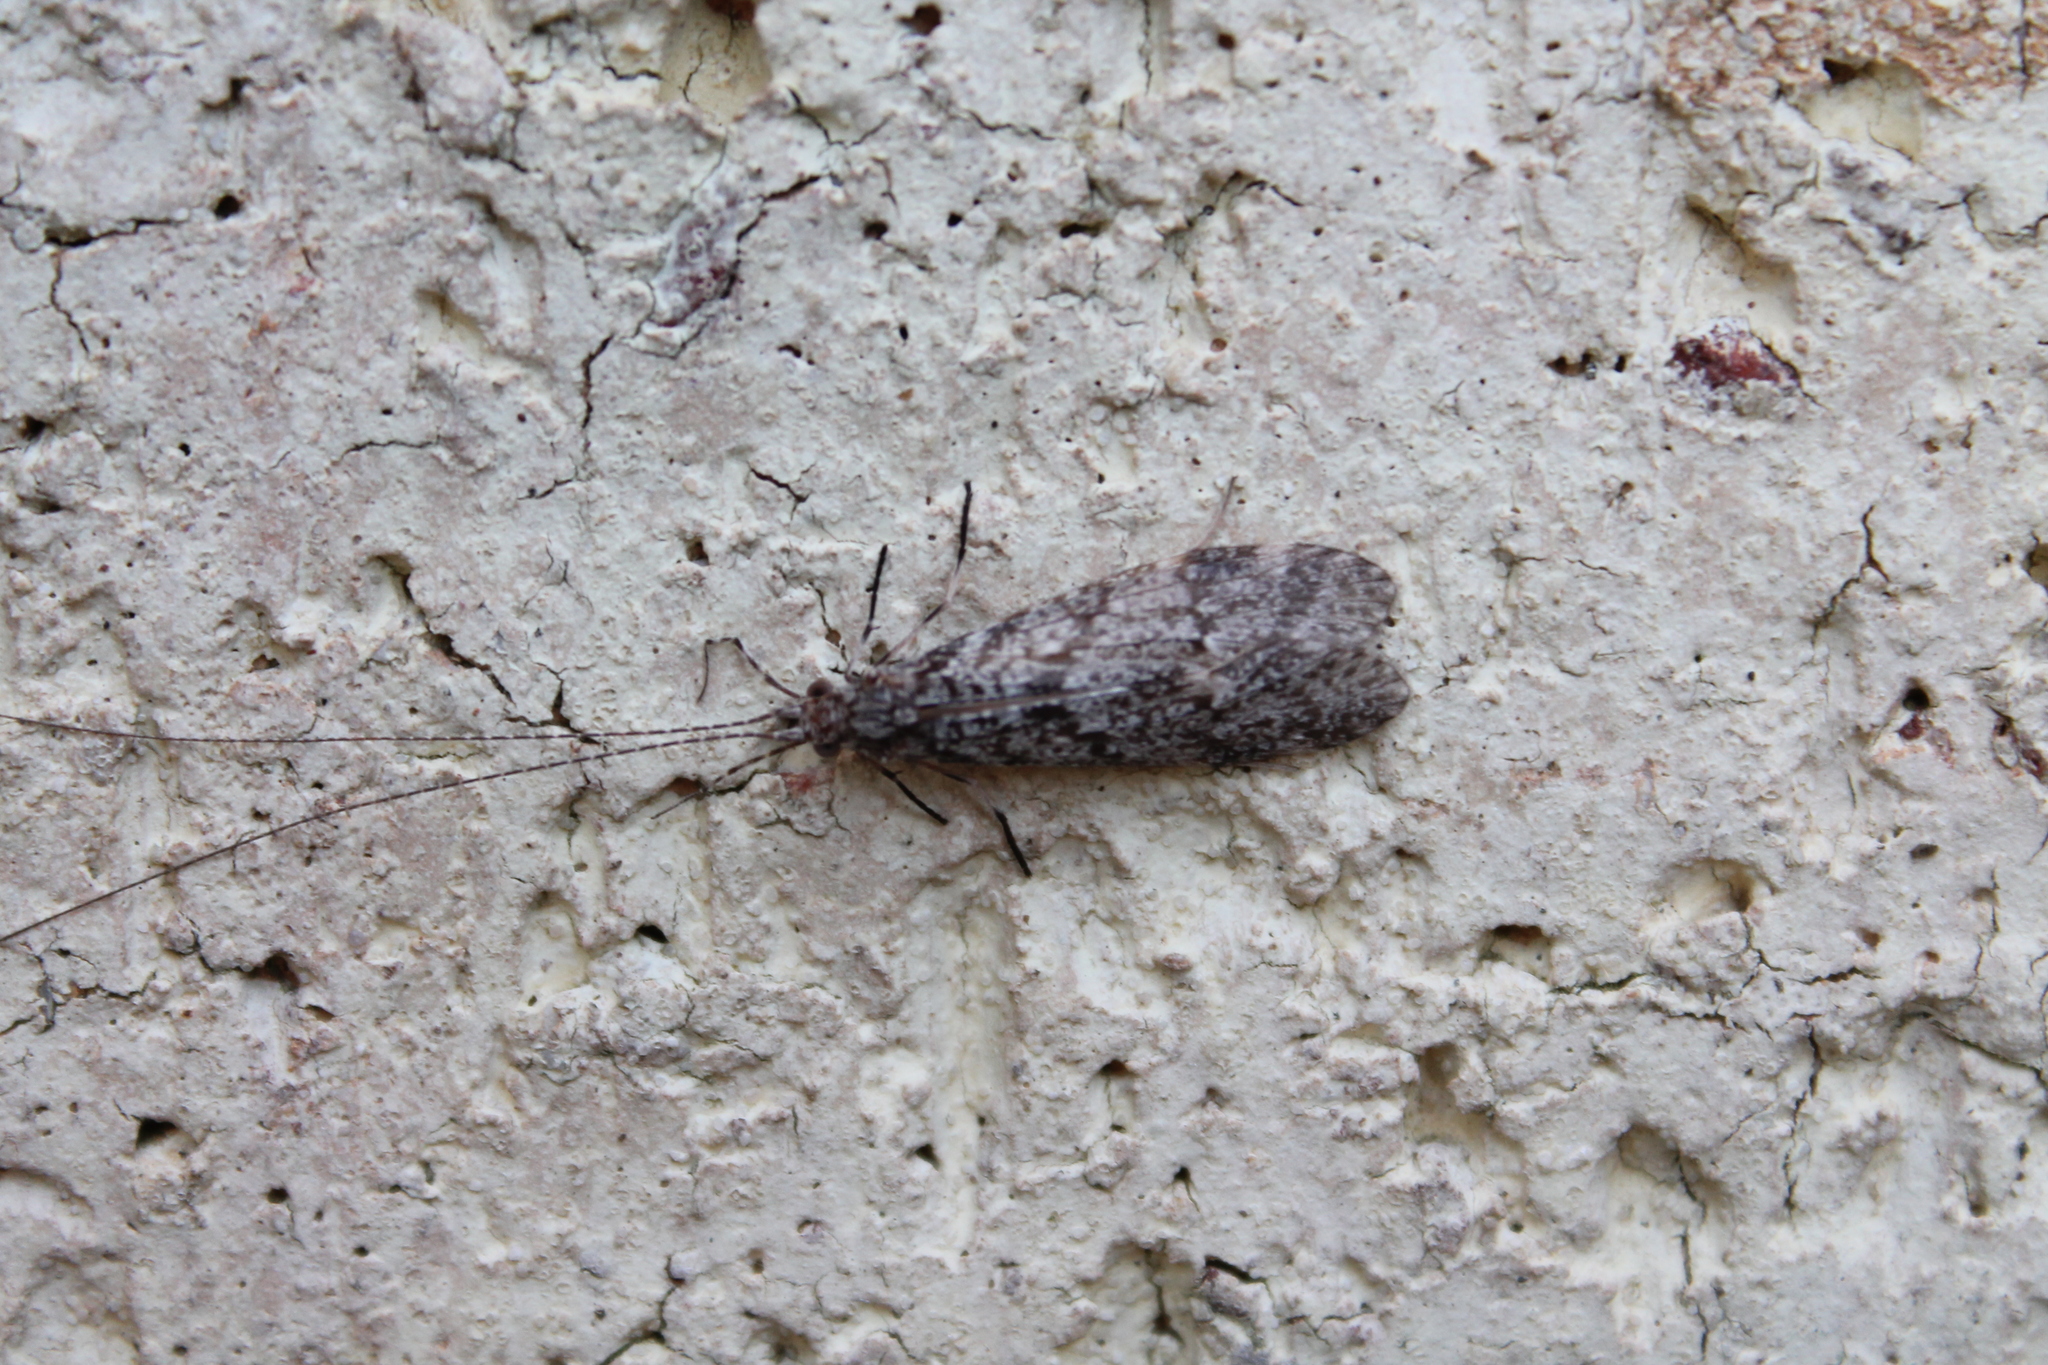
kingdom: Animalia
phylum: Arthropoda
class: Insecta
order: Trichoptera
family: Leptoceridae
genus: Triplectides
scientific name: Triplectides
